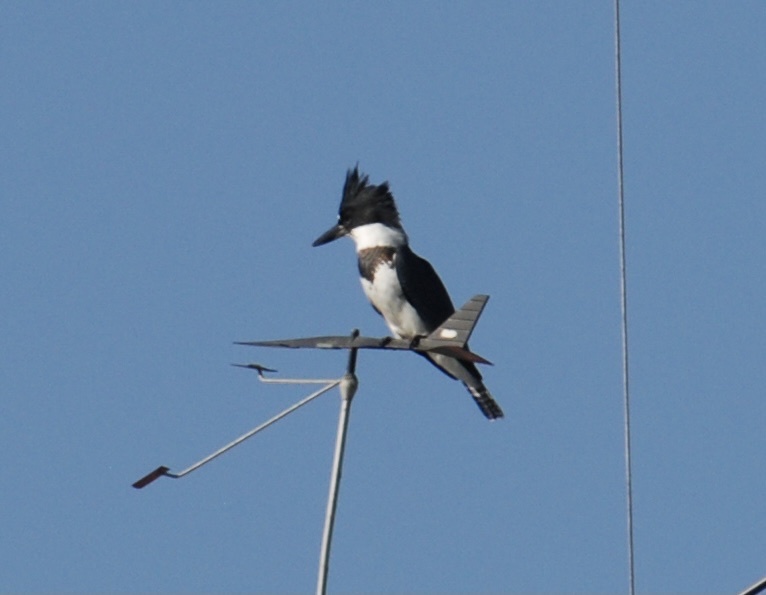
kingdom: Animalia
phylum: Chordata
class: Aves
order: Coraciiformes
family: Alcedinidae
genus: Megaceryle
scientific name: Megaceryle alcyon
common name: Belted kingfisher
